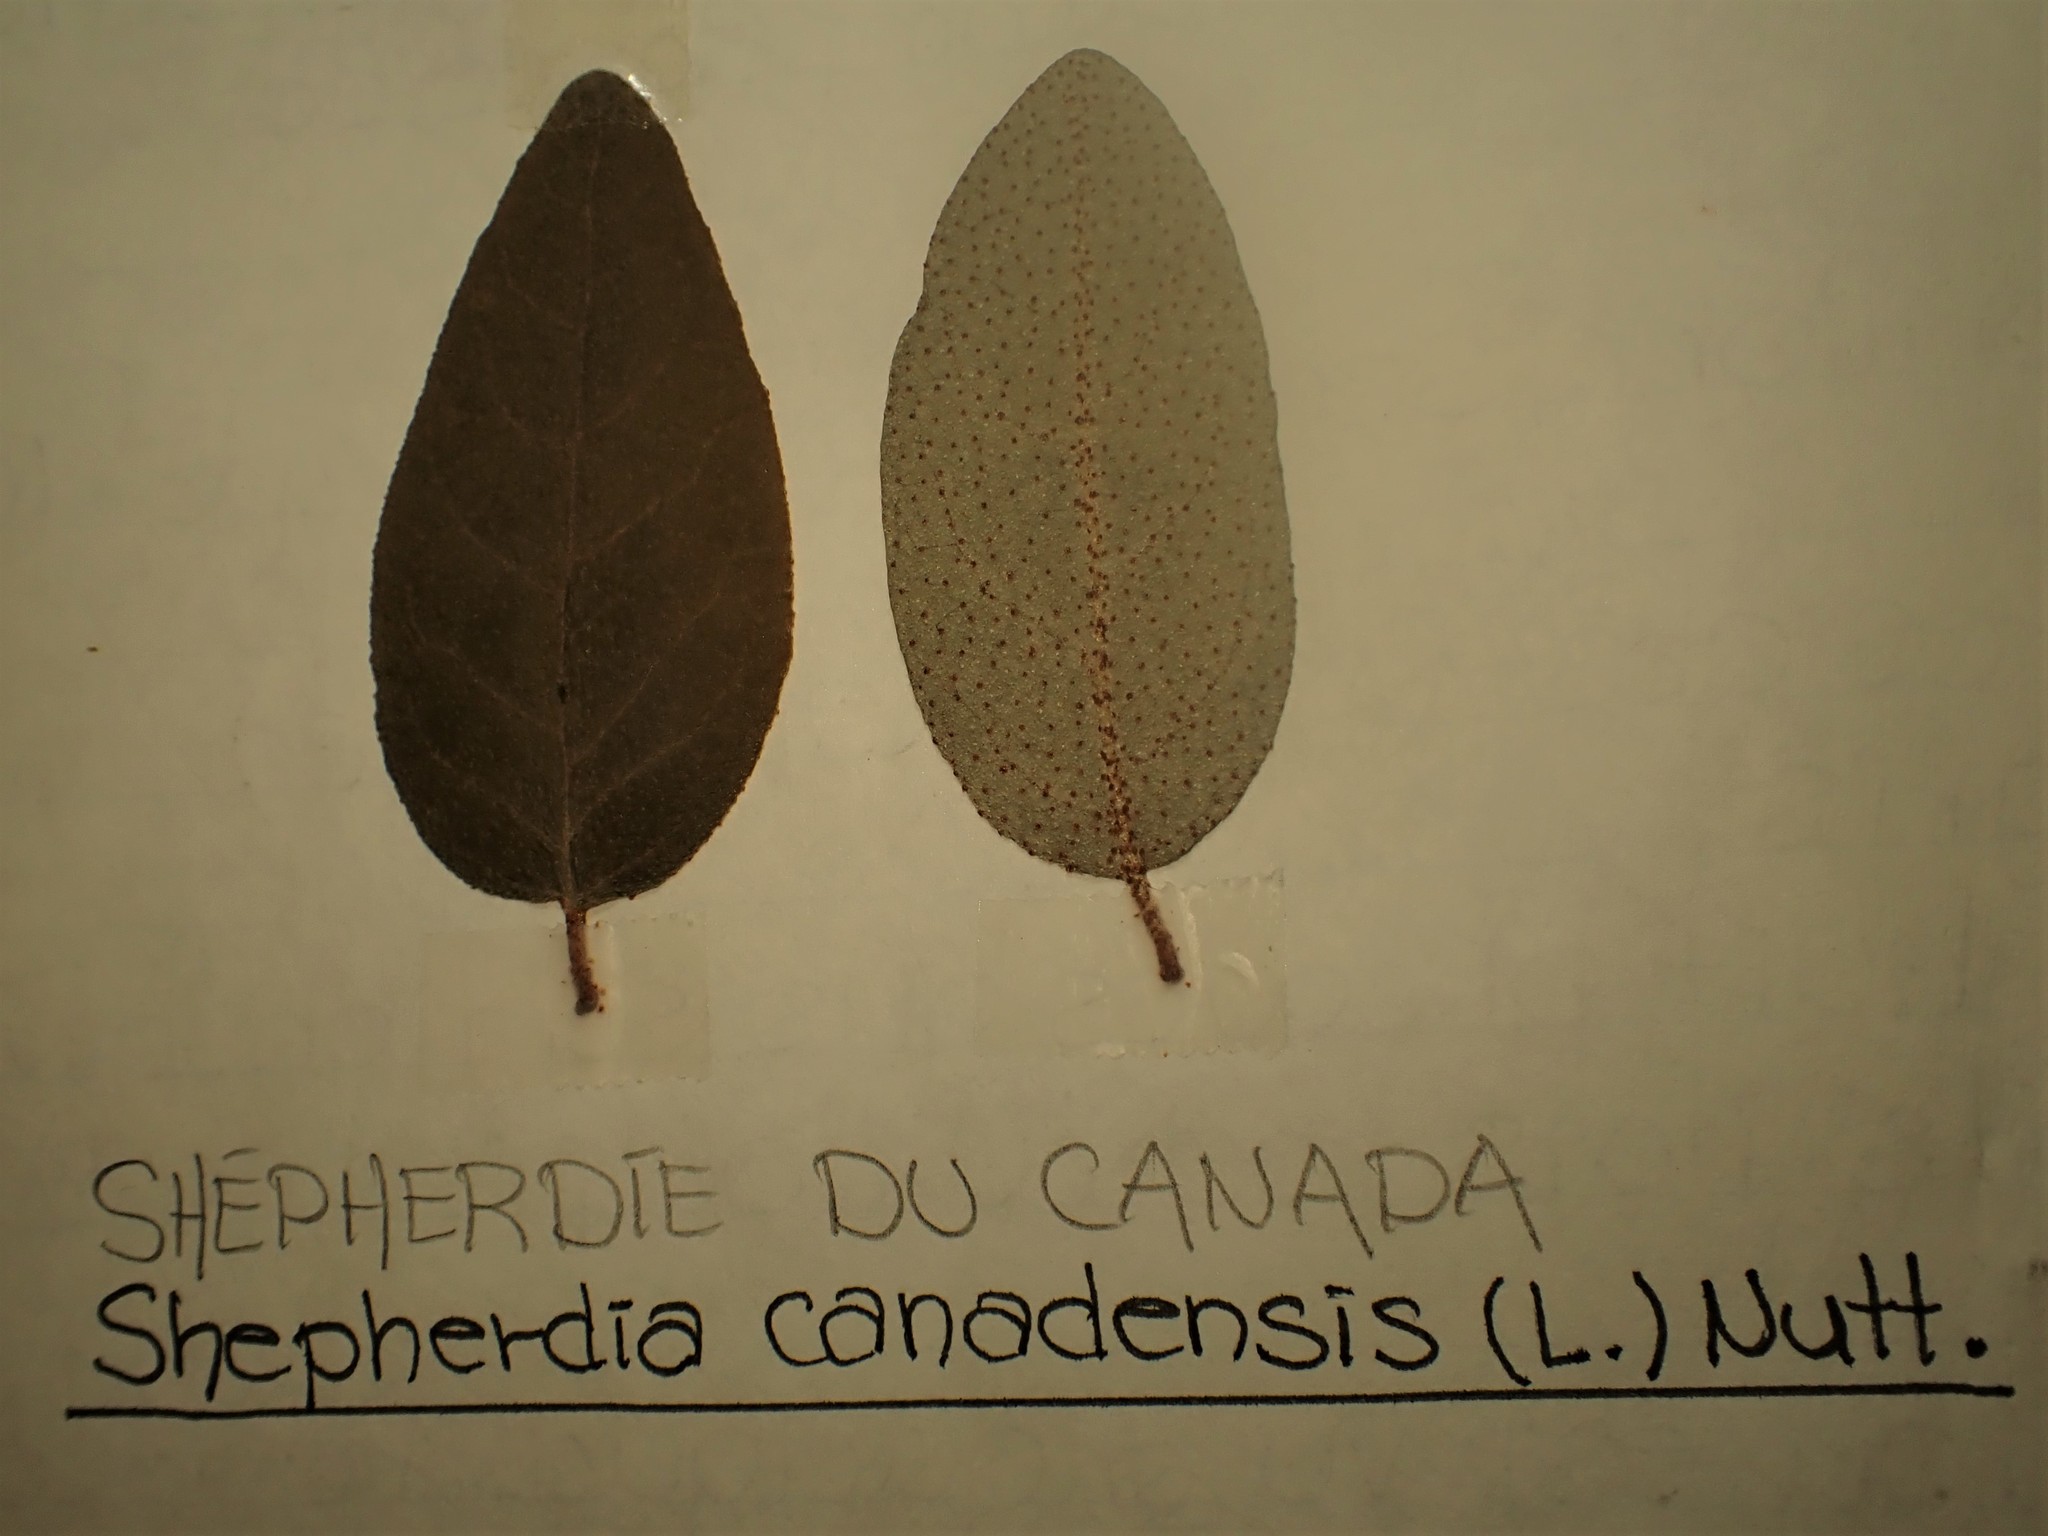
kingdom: Plantae
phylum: Tracheophyta
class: Magnoliopsida
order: Rosales
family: Elaeagnaceae
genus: Shepherdia
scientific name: Shepherdia canadensis
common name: Soapberry
